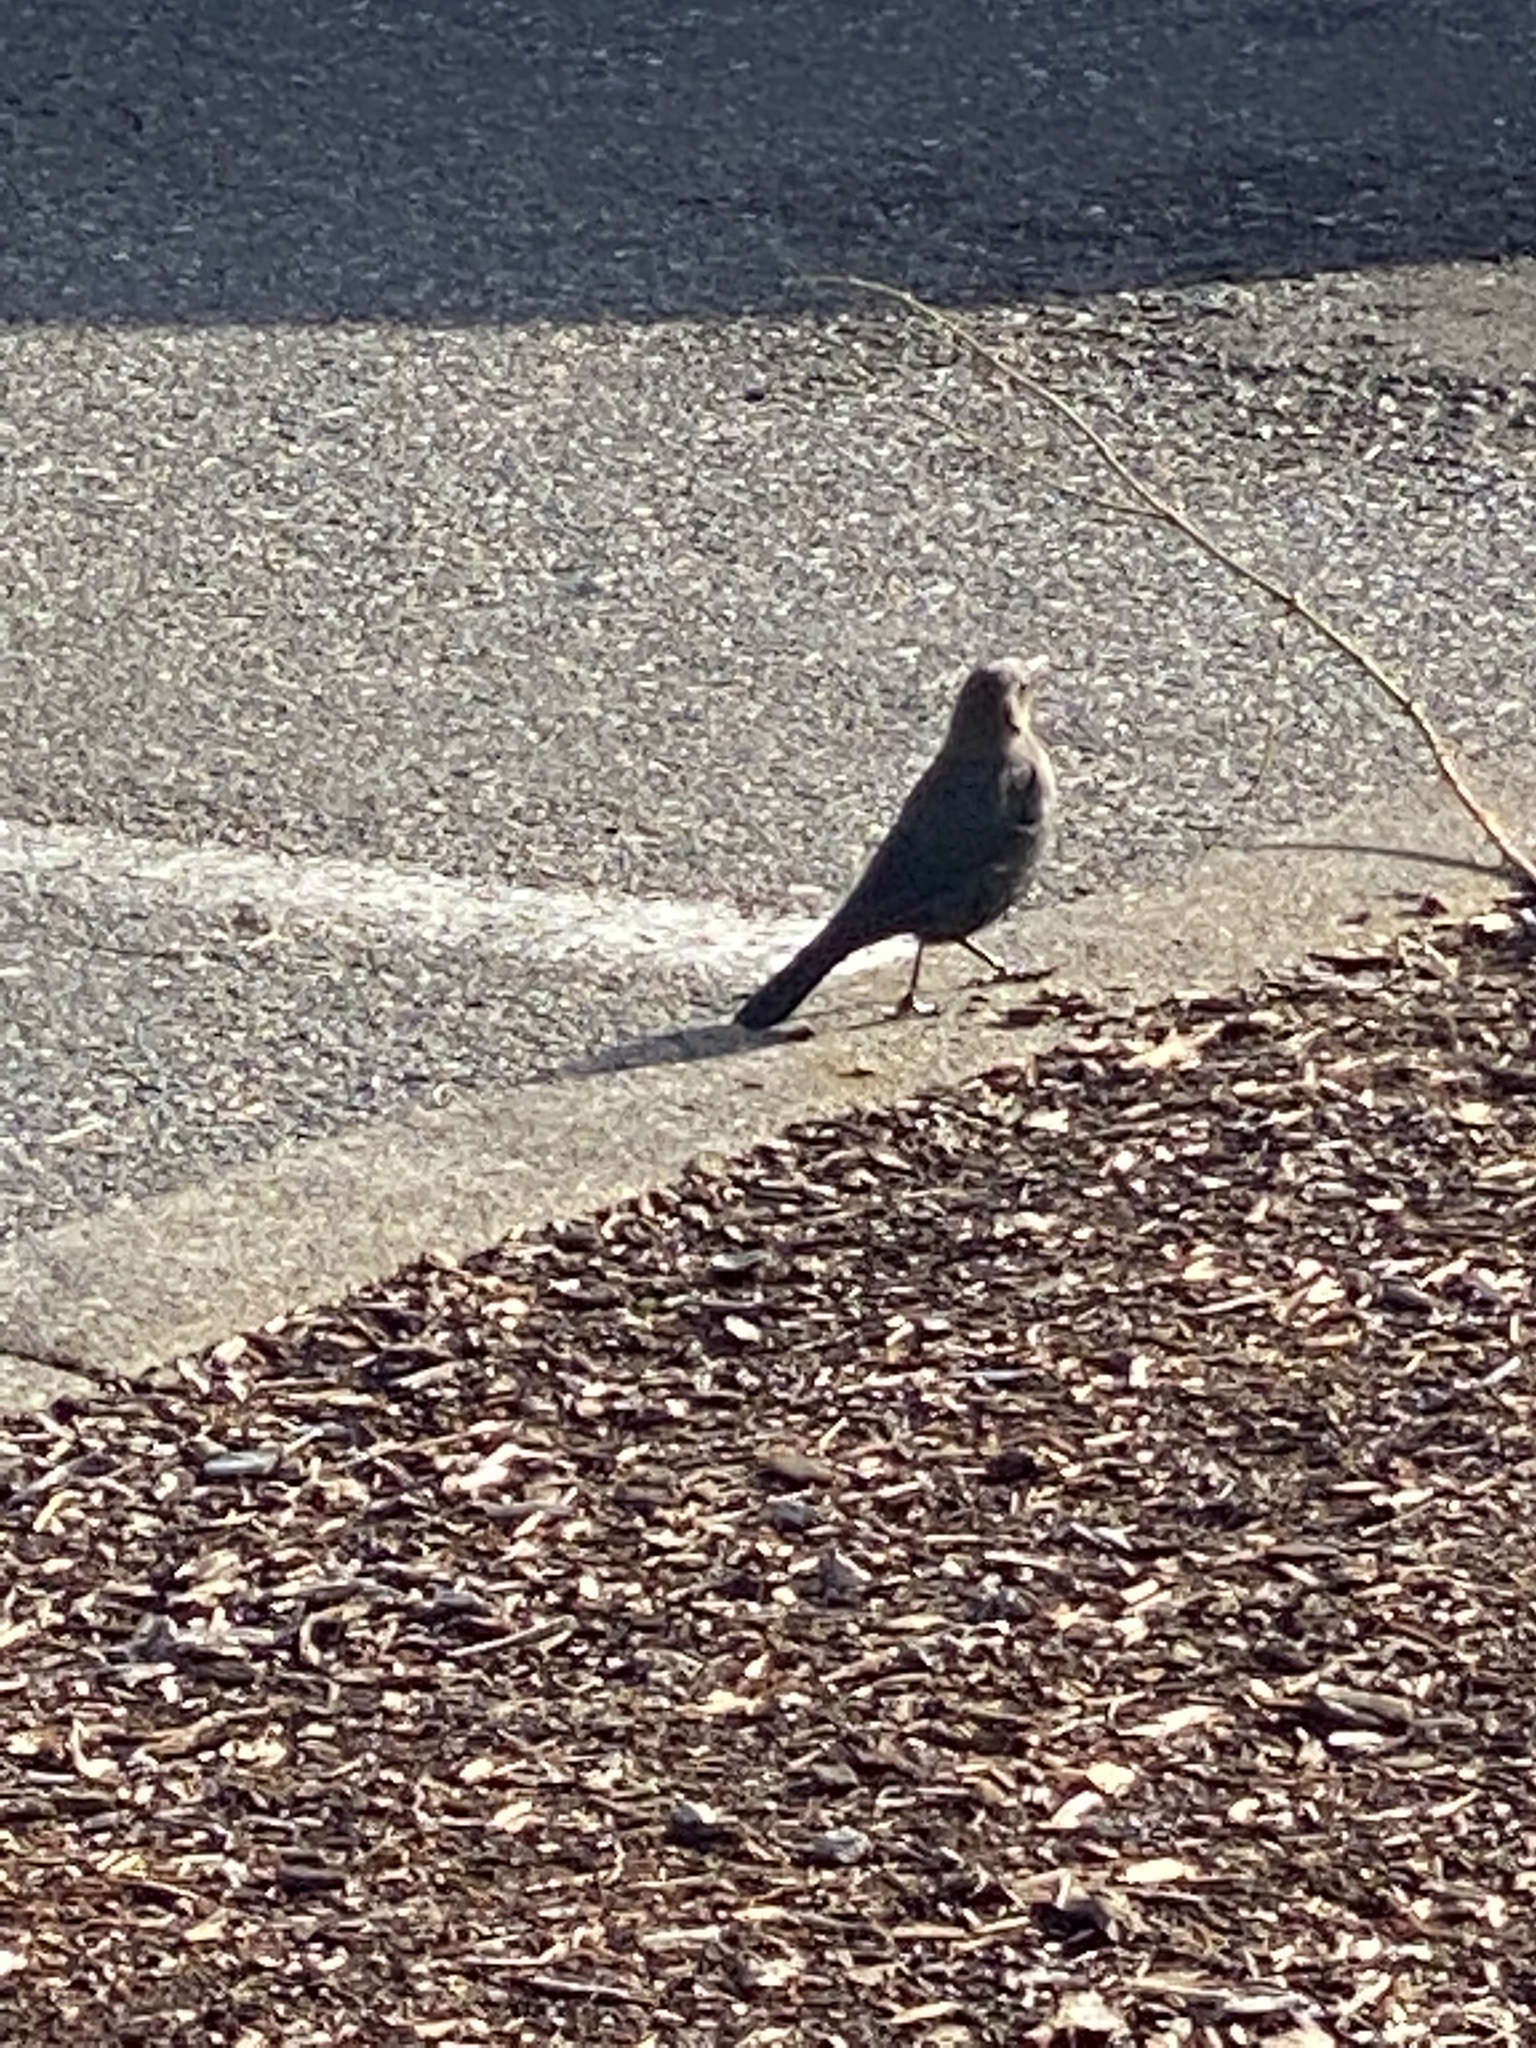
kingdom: Animalia
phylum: Chordata
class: Aves
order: Passeriformes
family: Icteridae
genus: Euphagus
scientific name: Euphagus cyanocephalus
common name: Brewer's blackbird
